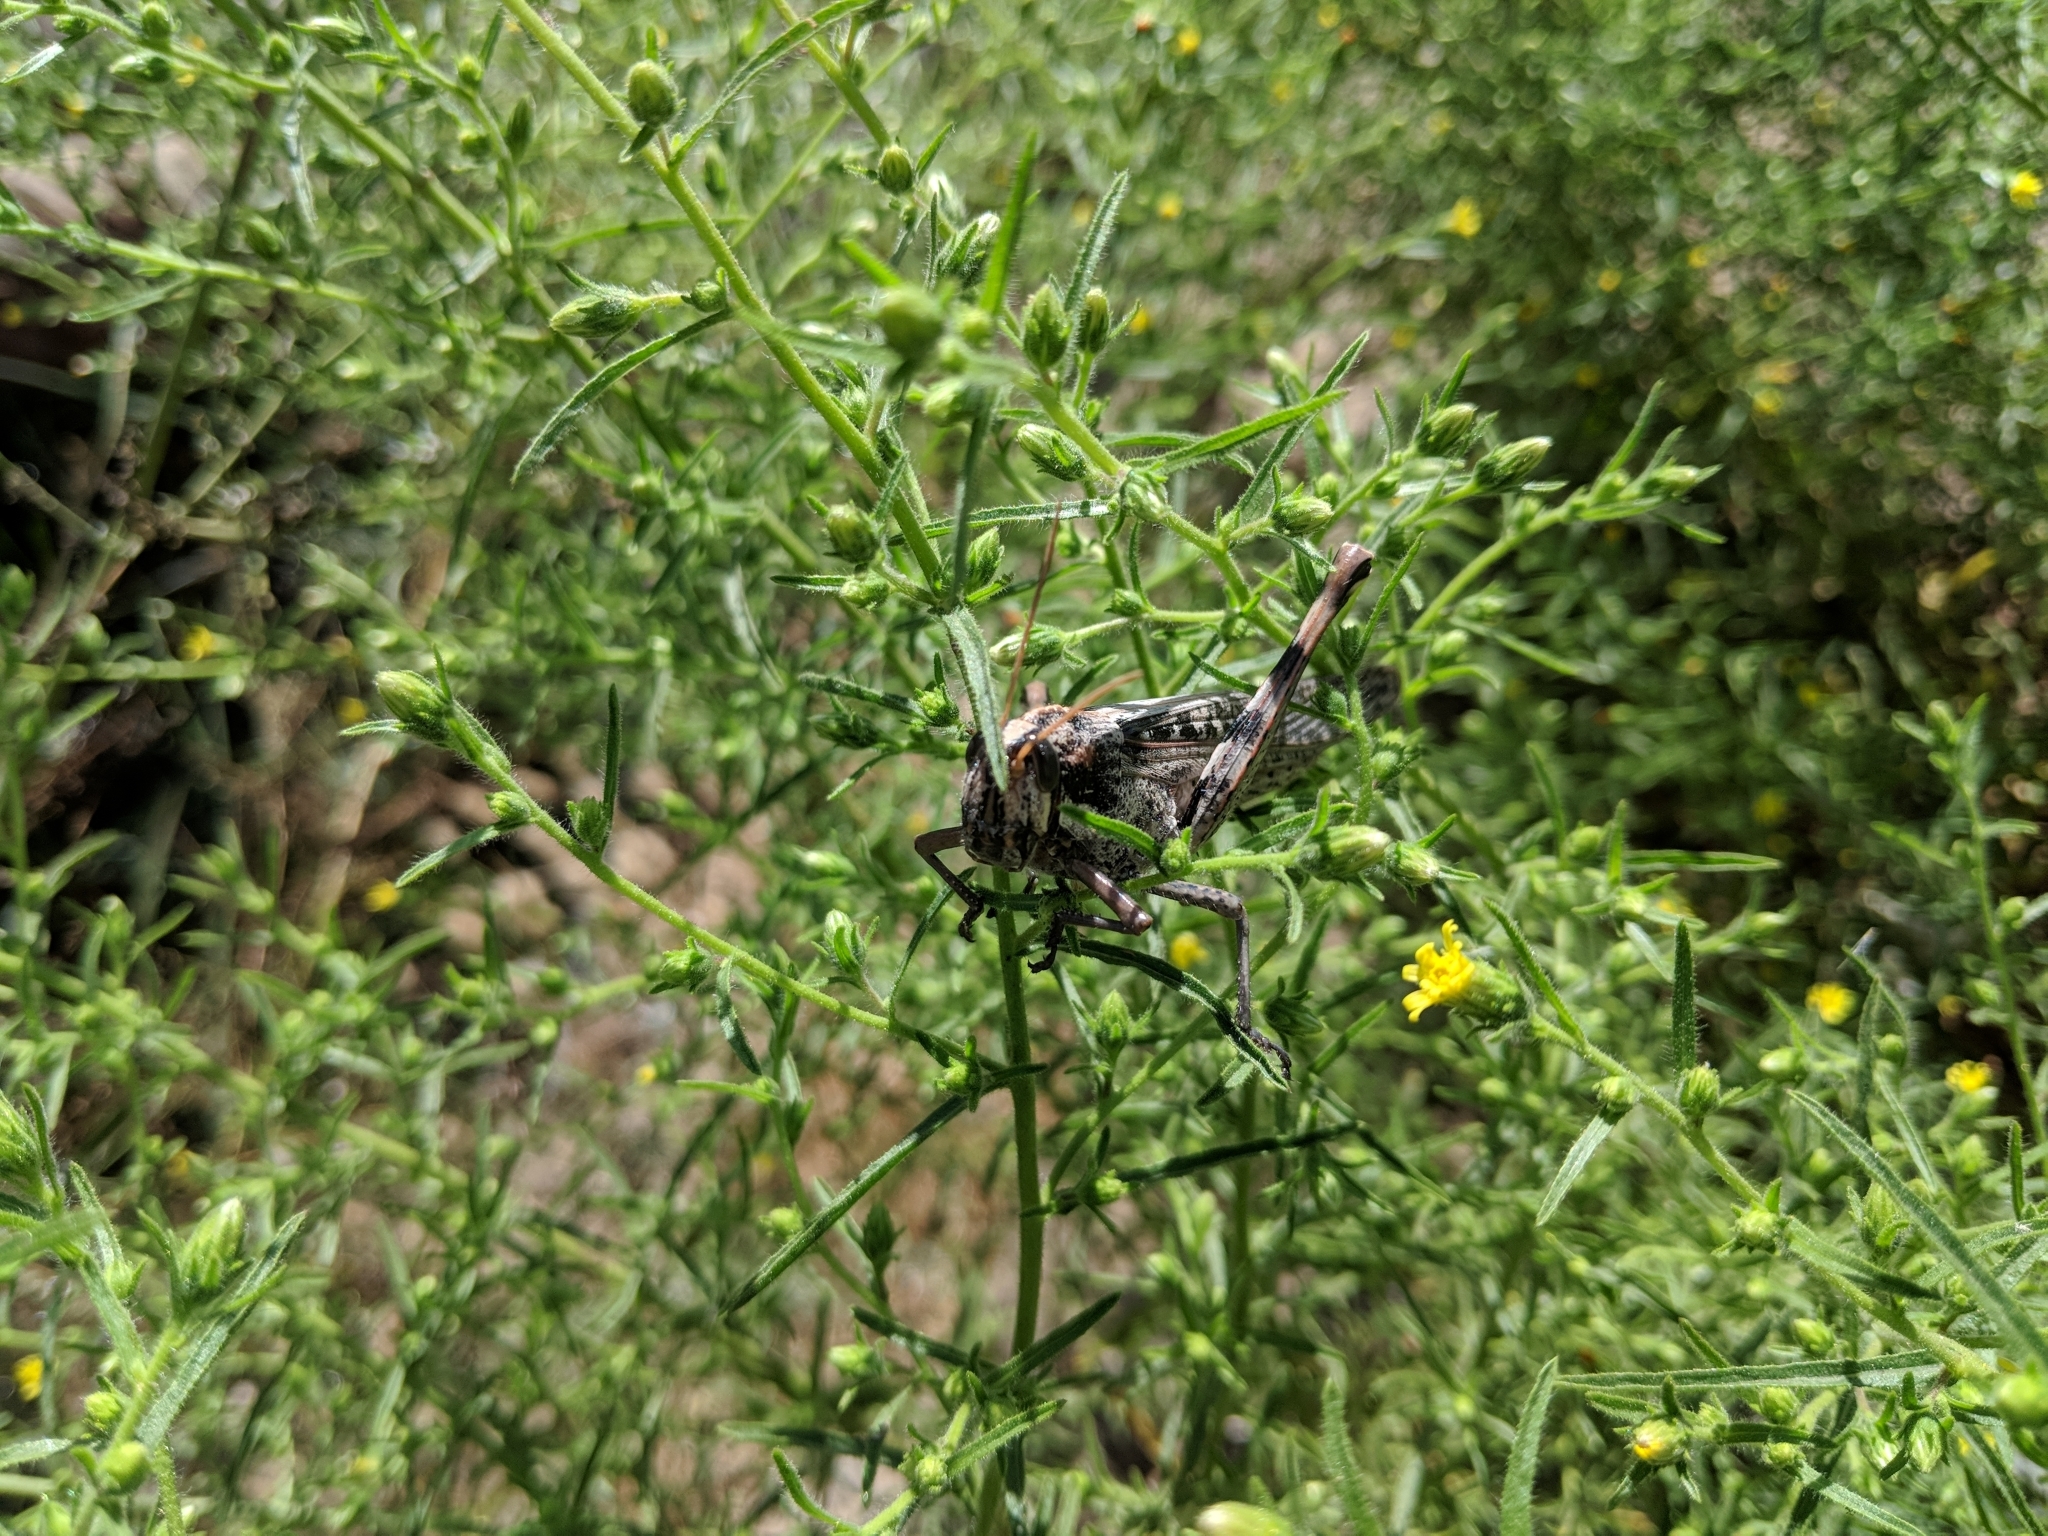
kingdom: Animalia
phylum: Arthropoda
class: Insecta
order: Orthoptera
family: Acrididae
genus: Schistocerca
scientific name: Schistocerca nitens
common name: Vagrant grasshopper
